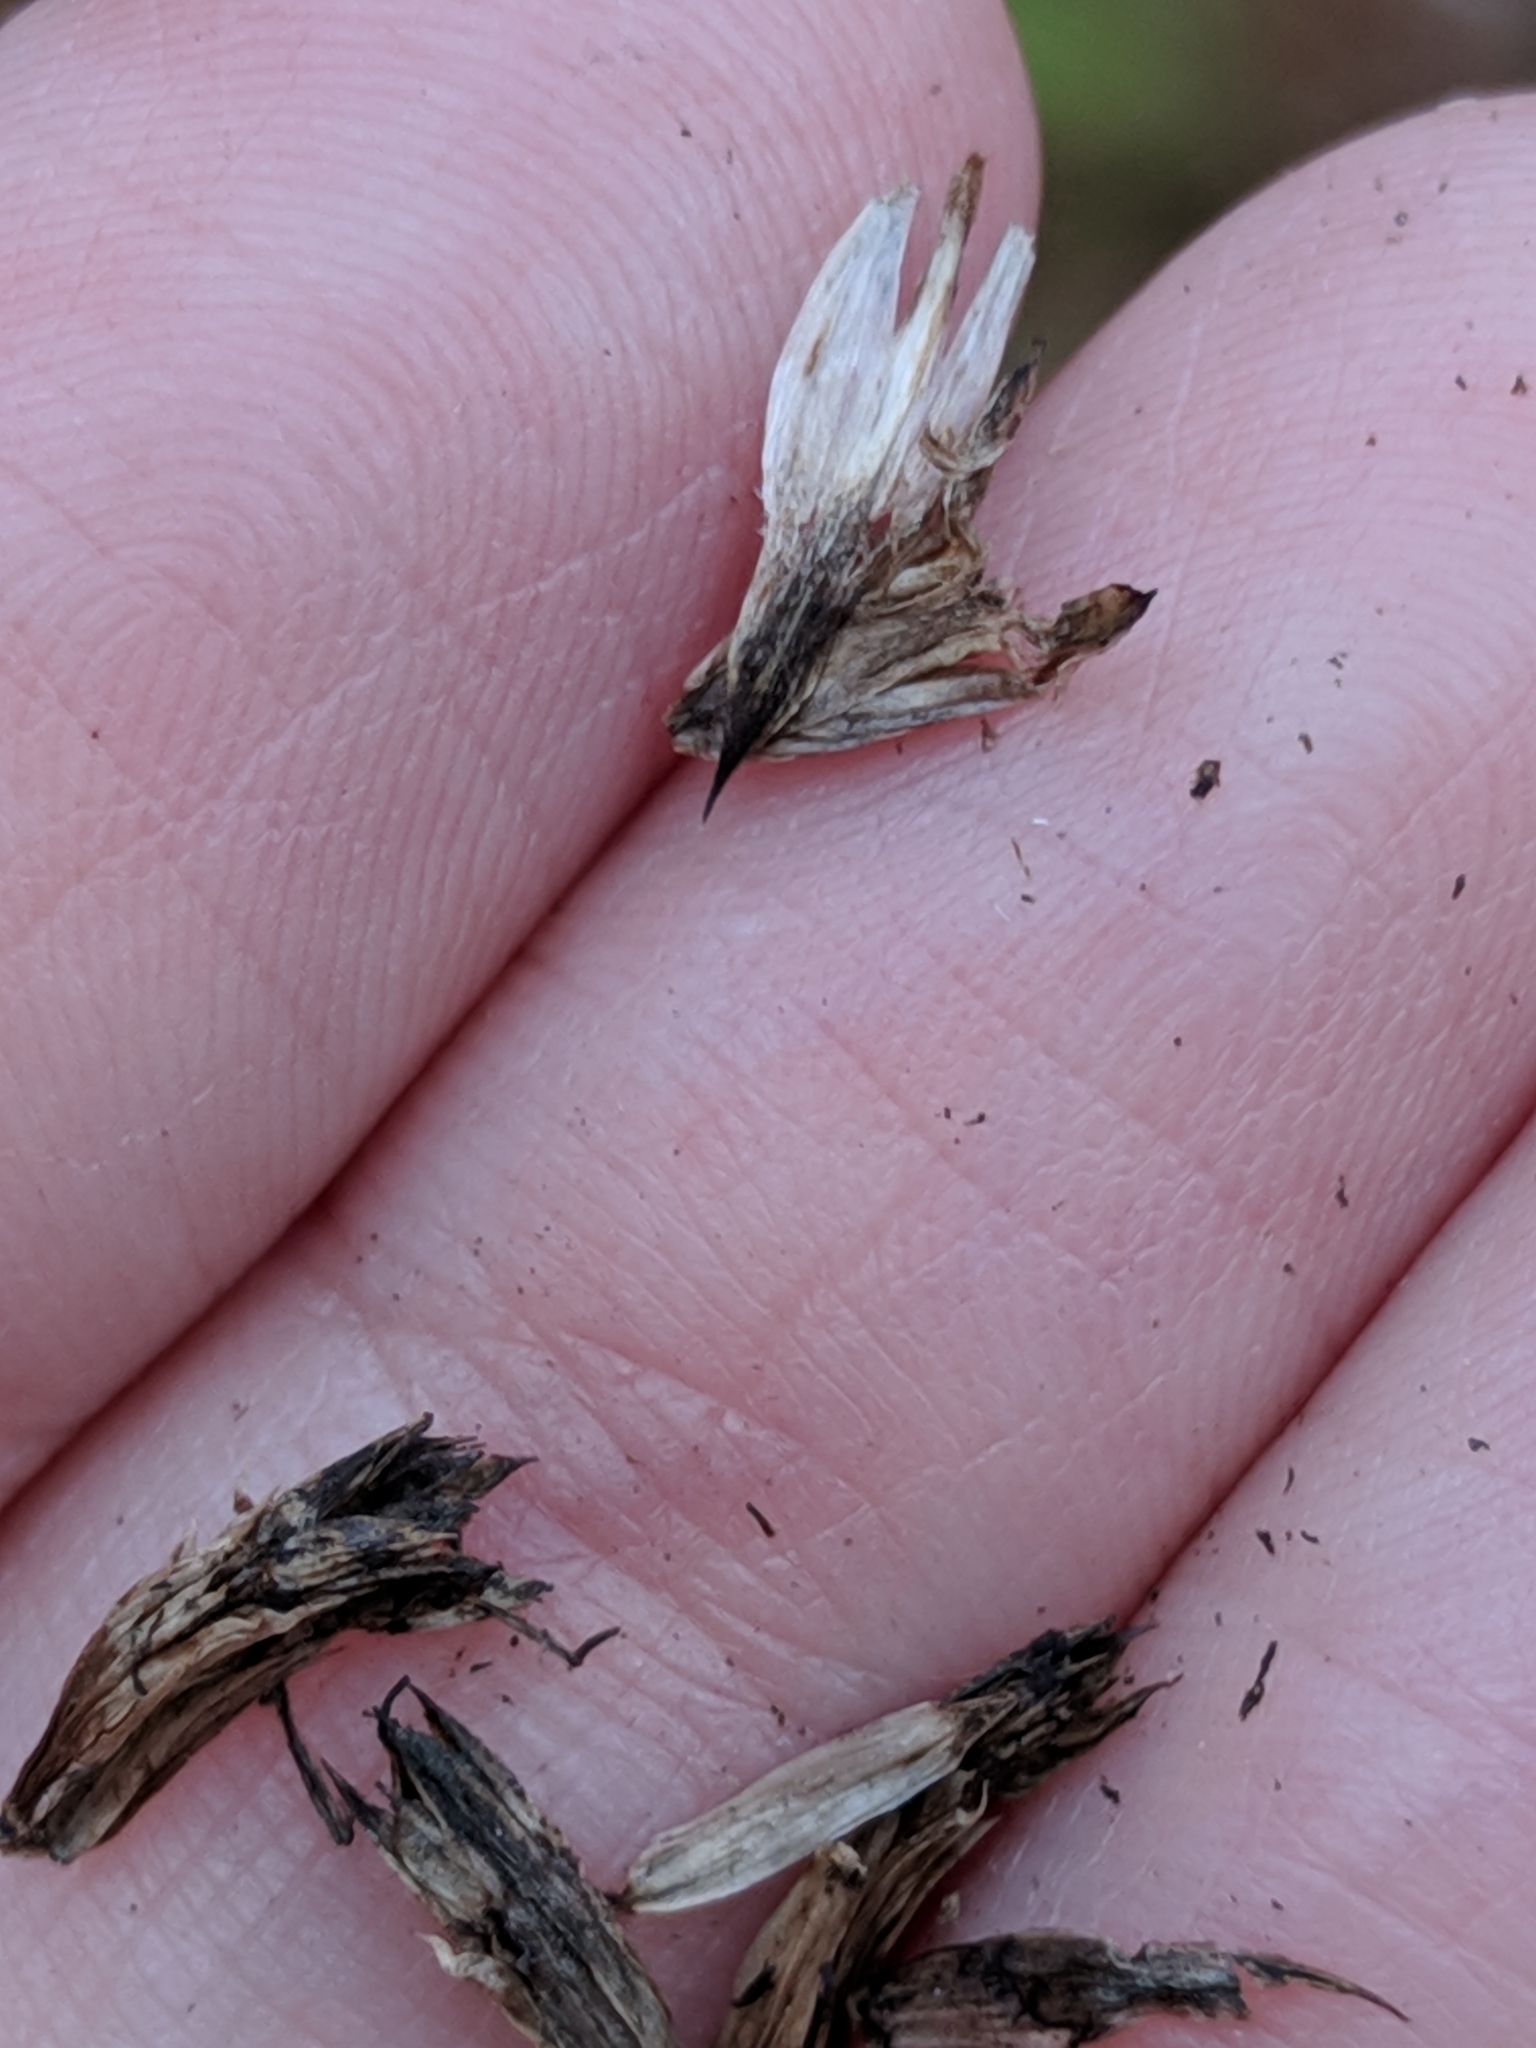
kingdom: Plantae
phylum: Tracheophyta
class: Magnoliopsida
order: Apiales
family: Apiaceae
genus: Eryngium
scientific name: Eryngium yuccifolium
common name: Button eryngo
